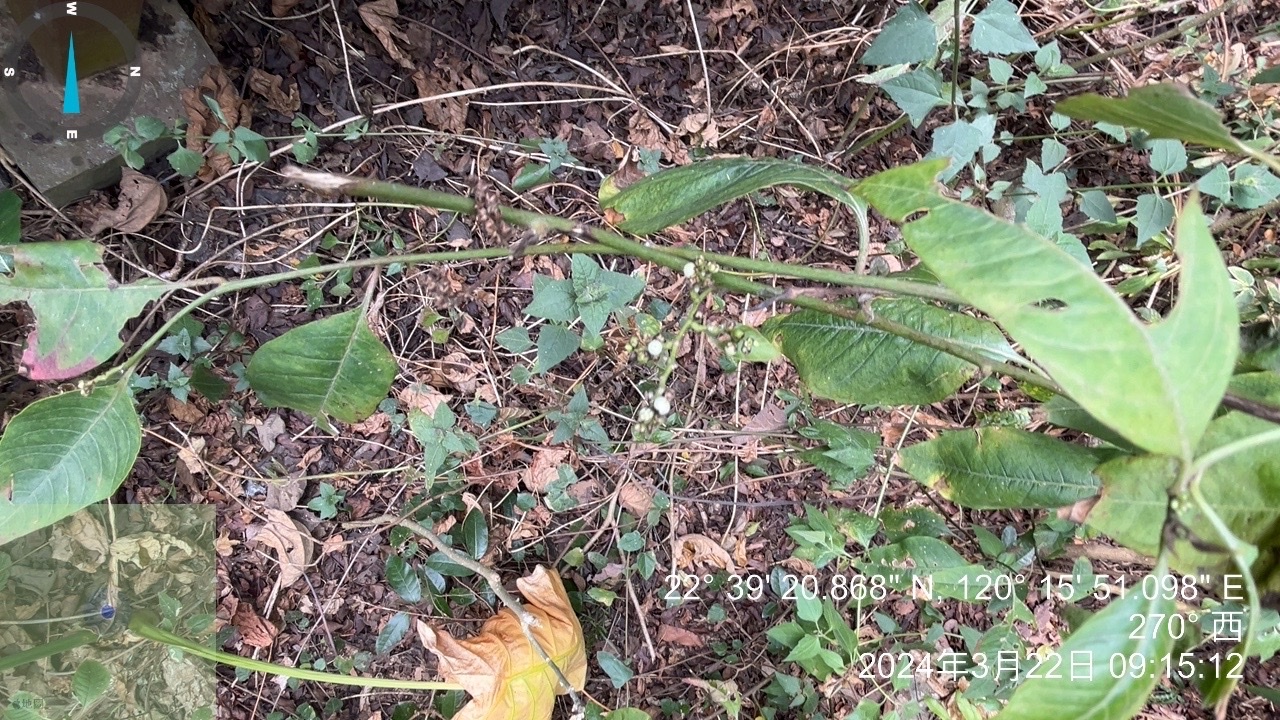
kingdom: Plantae
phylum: Tracheophyta
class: Magnoliopsida
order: Caryophyllales
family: Amaranthaceae
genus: Deeringia
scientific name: Deeringia polysperma
